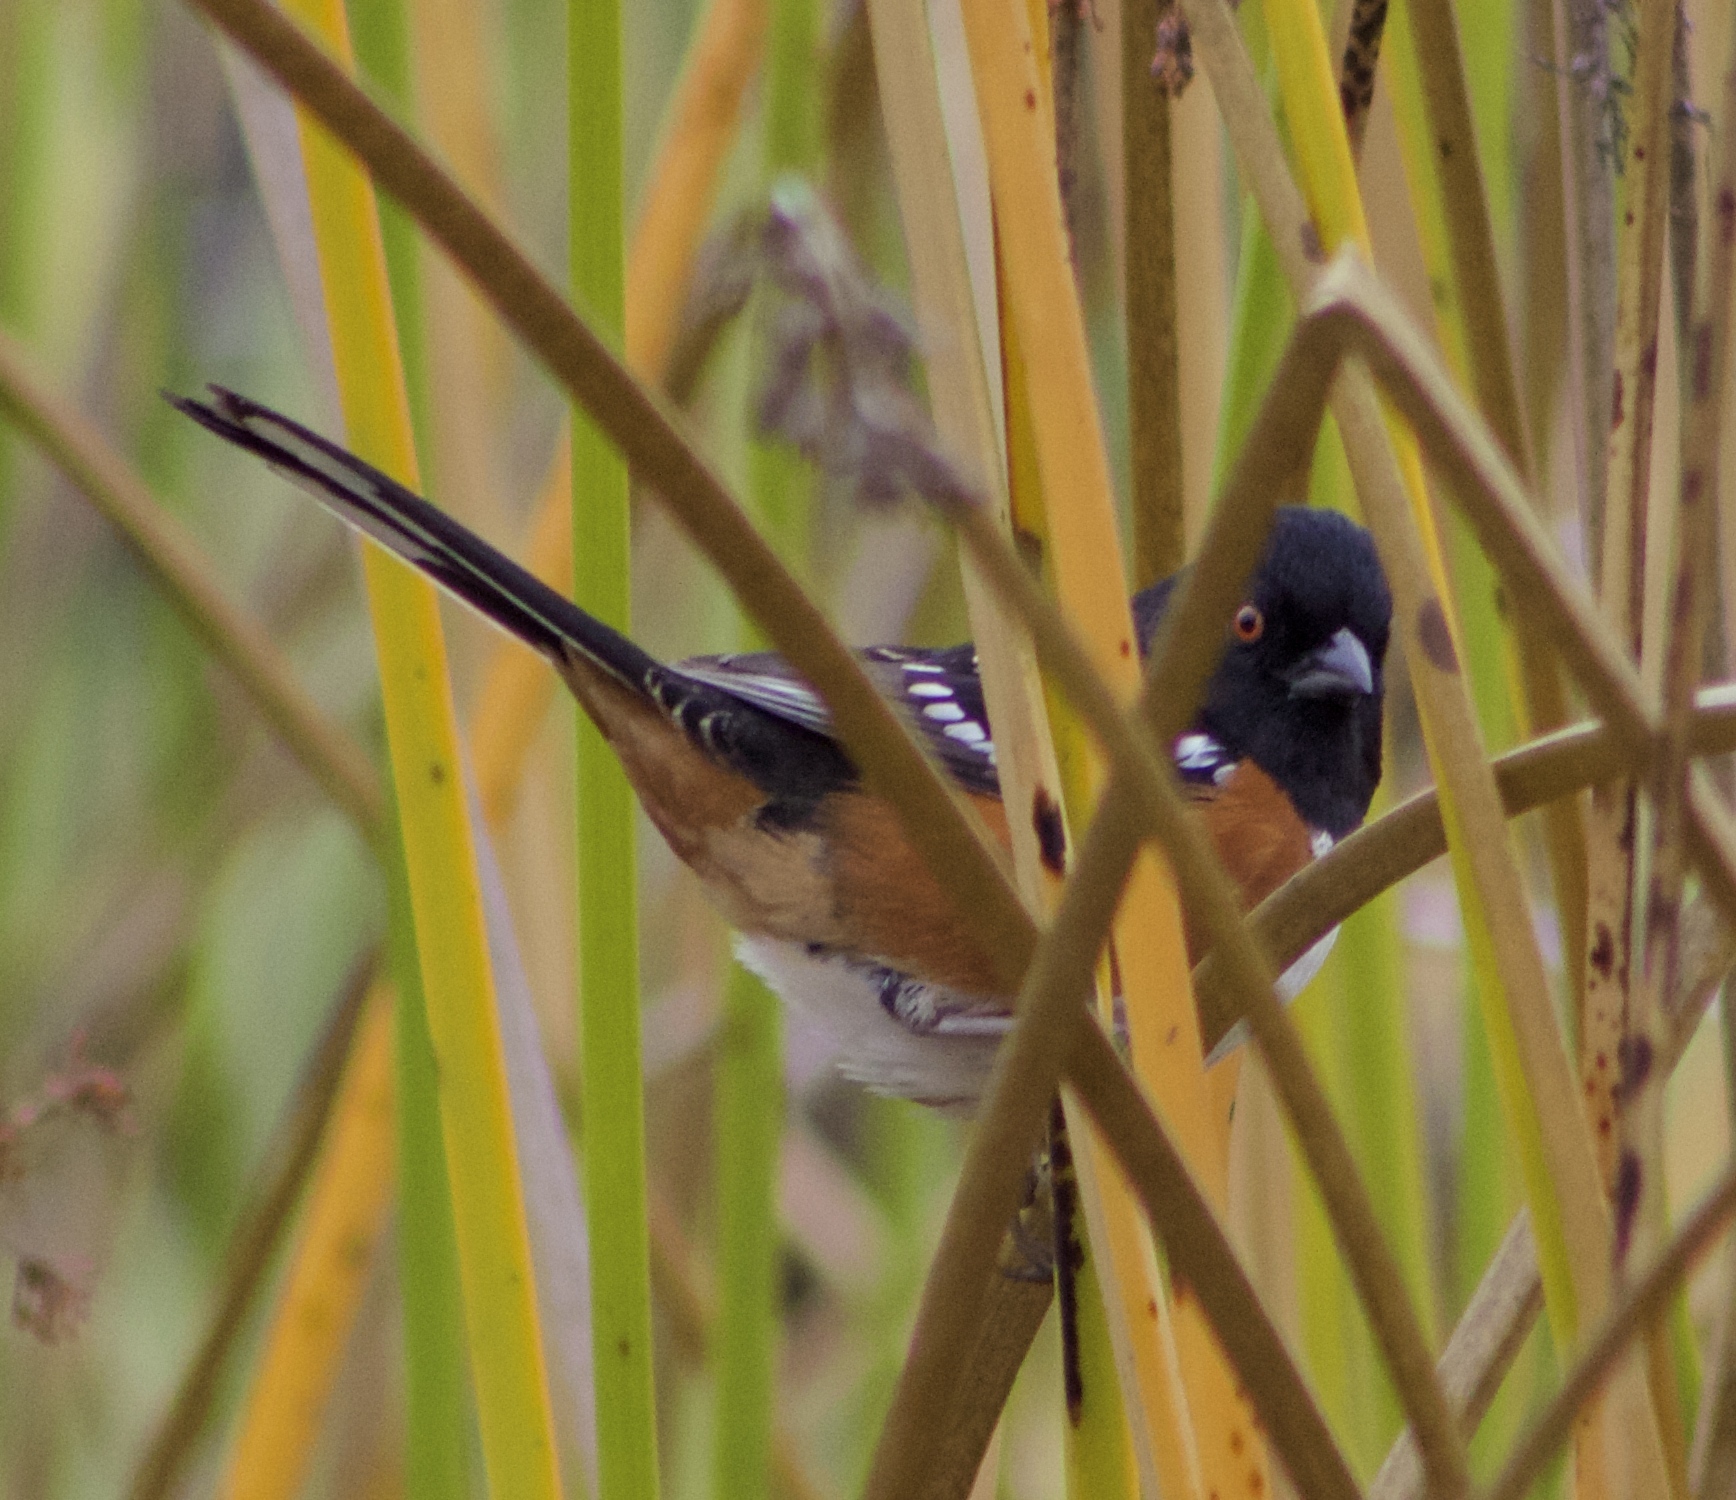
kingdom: Animalia
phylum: Chordata
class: Aves
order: Passeriformes
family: Passerellidae
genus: Pipilo
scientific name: Pipilo maculatus
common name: Spotted towhee
